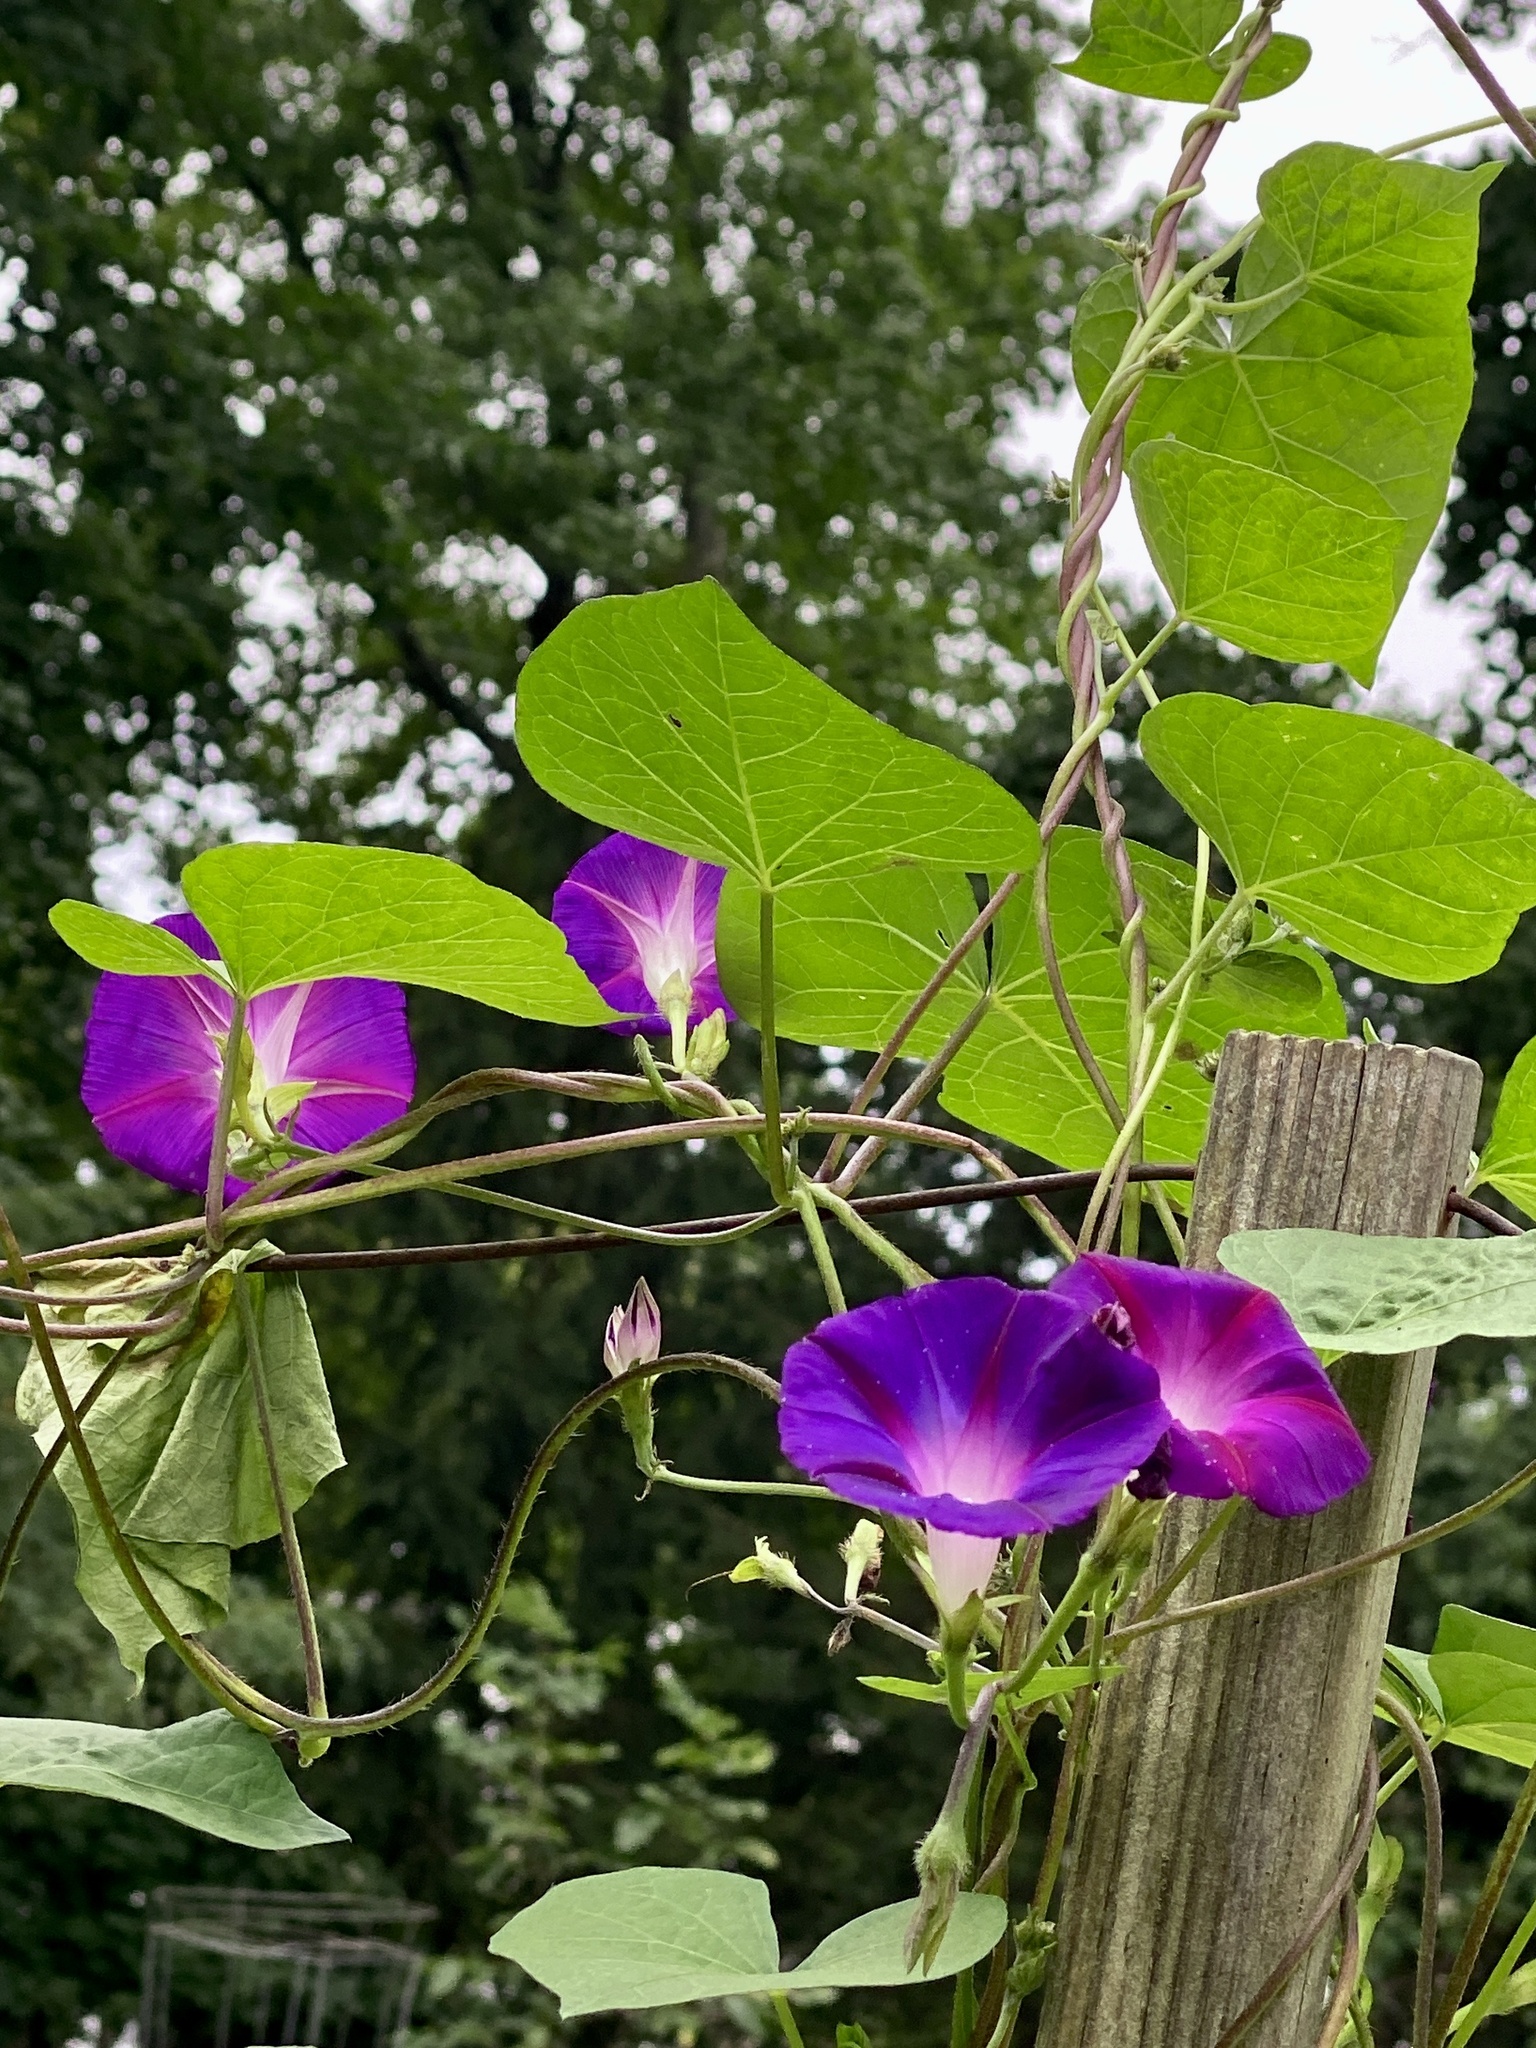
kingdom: Plantae
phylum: Tracheophyta
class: Magnoliopsida
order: Solanales
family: Convolvulaceae
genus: Ipomoea
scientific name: Ipomoea purpurea
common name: Common morning-glory
